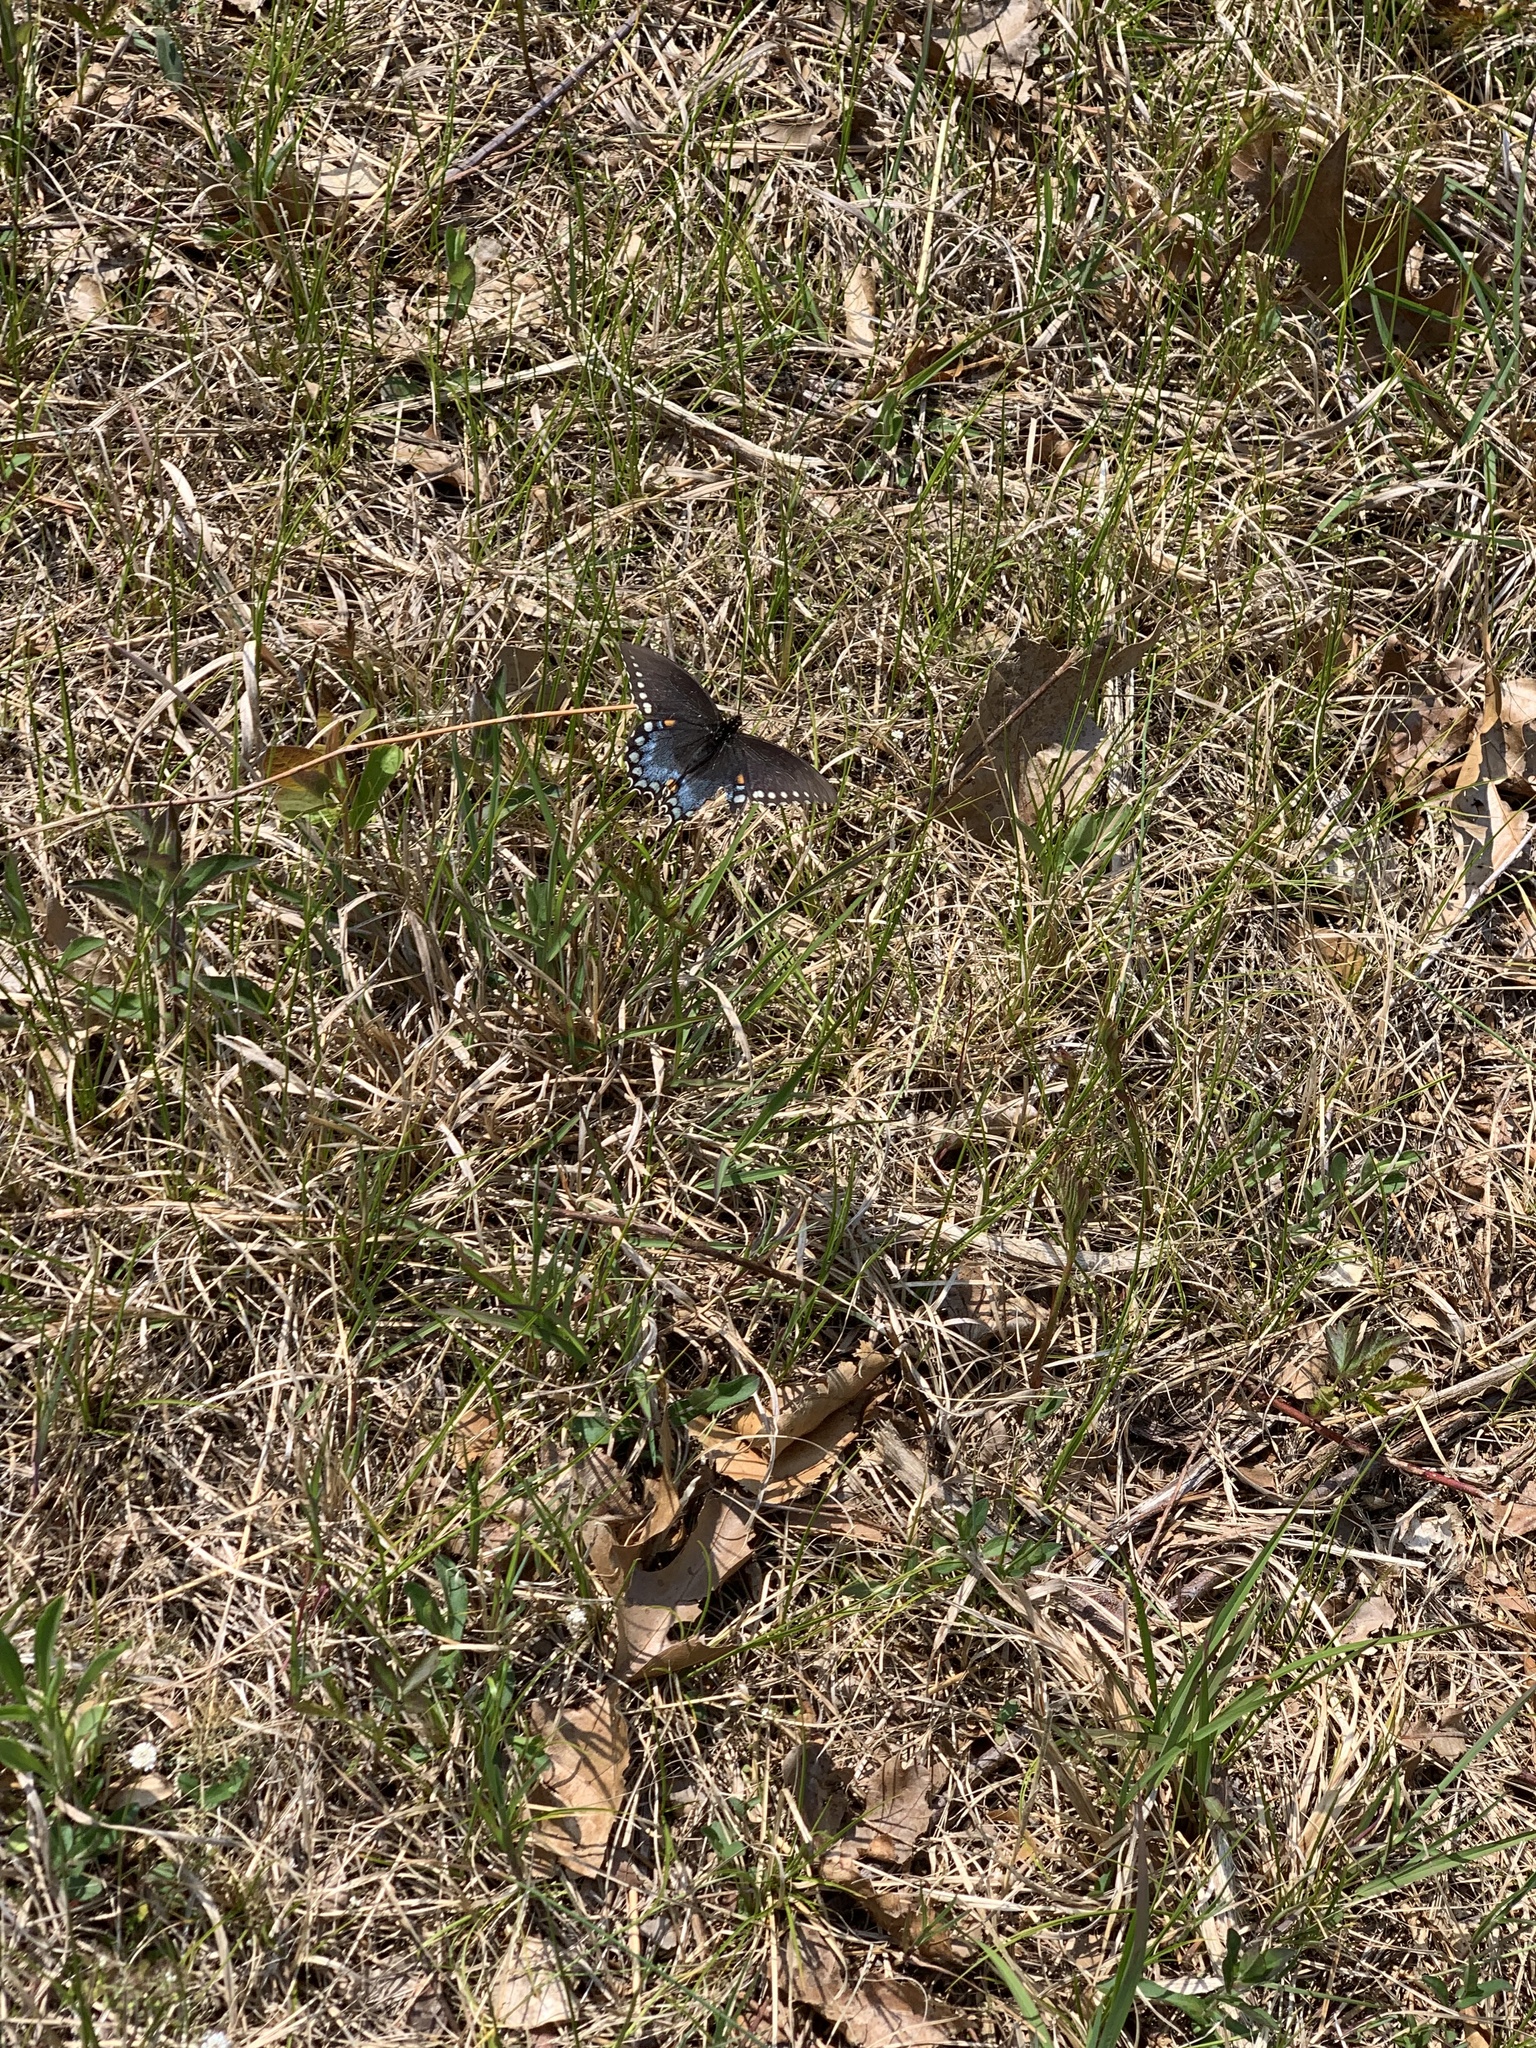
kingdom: Animalia
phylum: Arthropoda
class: Insecta
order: Lepidoptera
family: Papilionidae
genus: Papilio
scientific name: Papilio troilus
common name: Spicebush swallowtail
